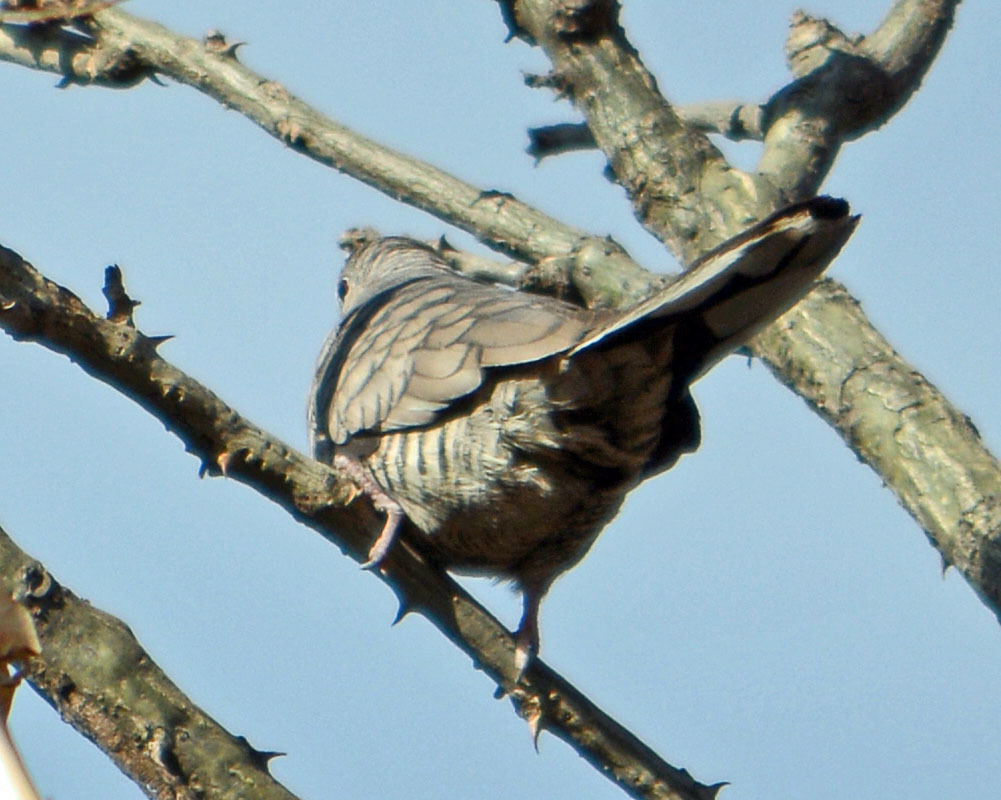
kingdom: Animalia
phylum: Chordata
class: Aves
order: Columbiformes
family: Columbidae
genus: Columbina
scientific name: Columbina inca
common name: Inca dove
